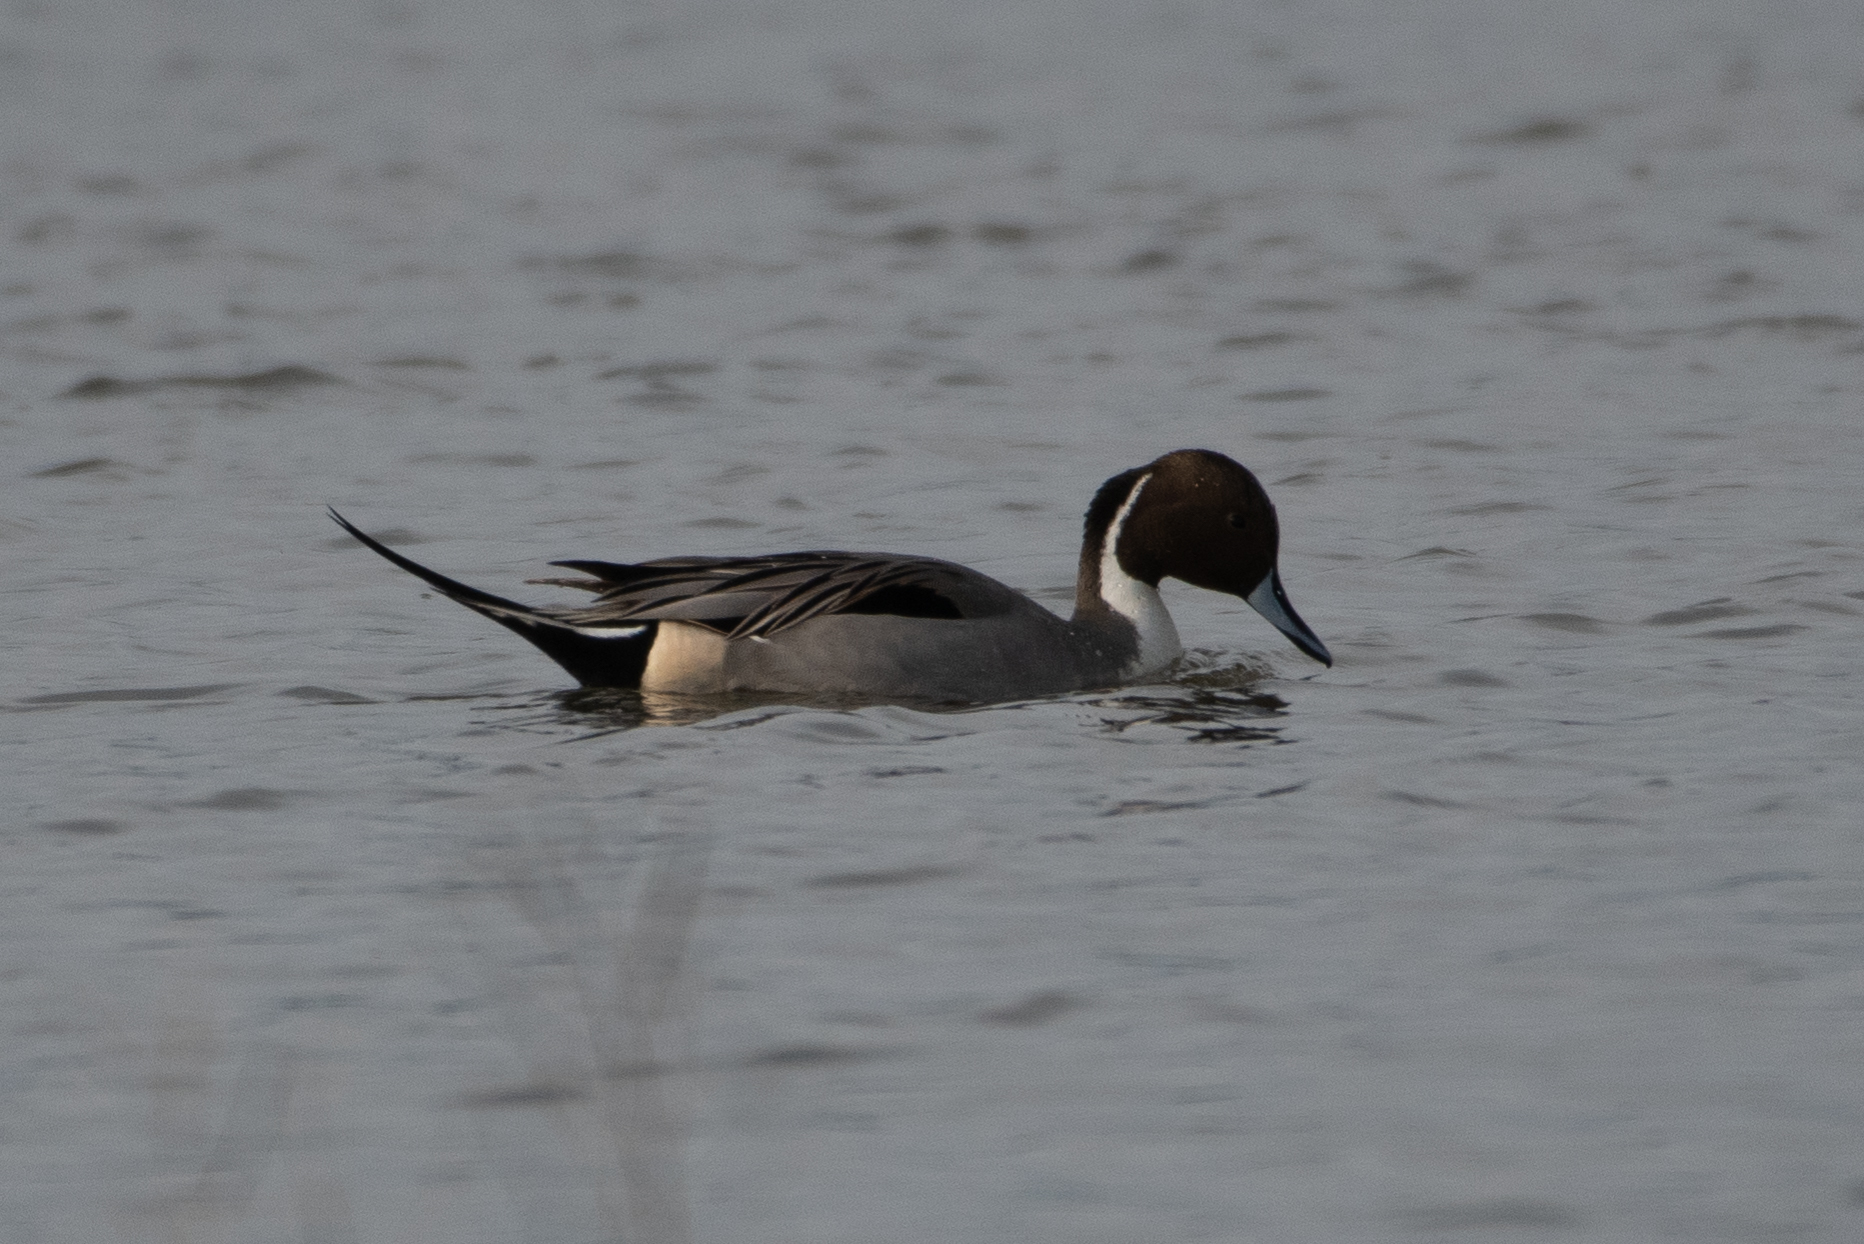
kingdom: Animalia
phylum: Chordata
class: Aves
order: Anseriformes
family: Anatidae
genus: Anas
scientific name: Anas acuta
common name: Northern pintail
